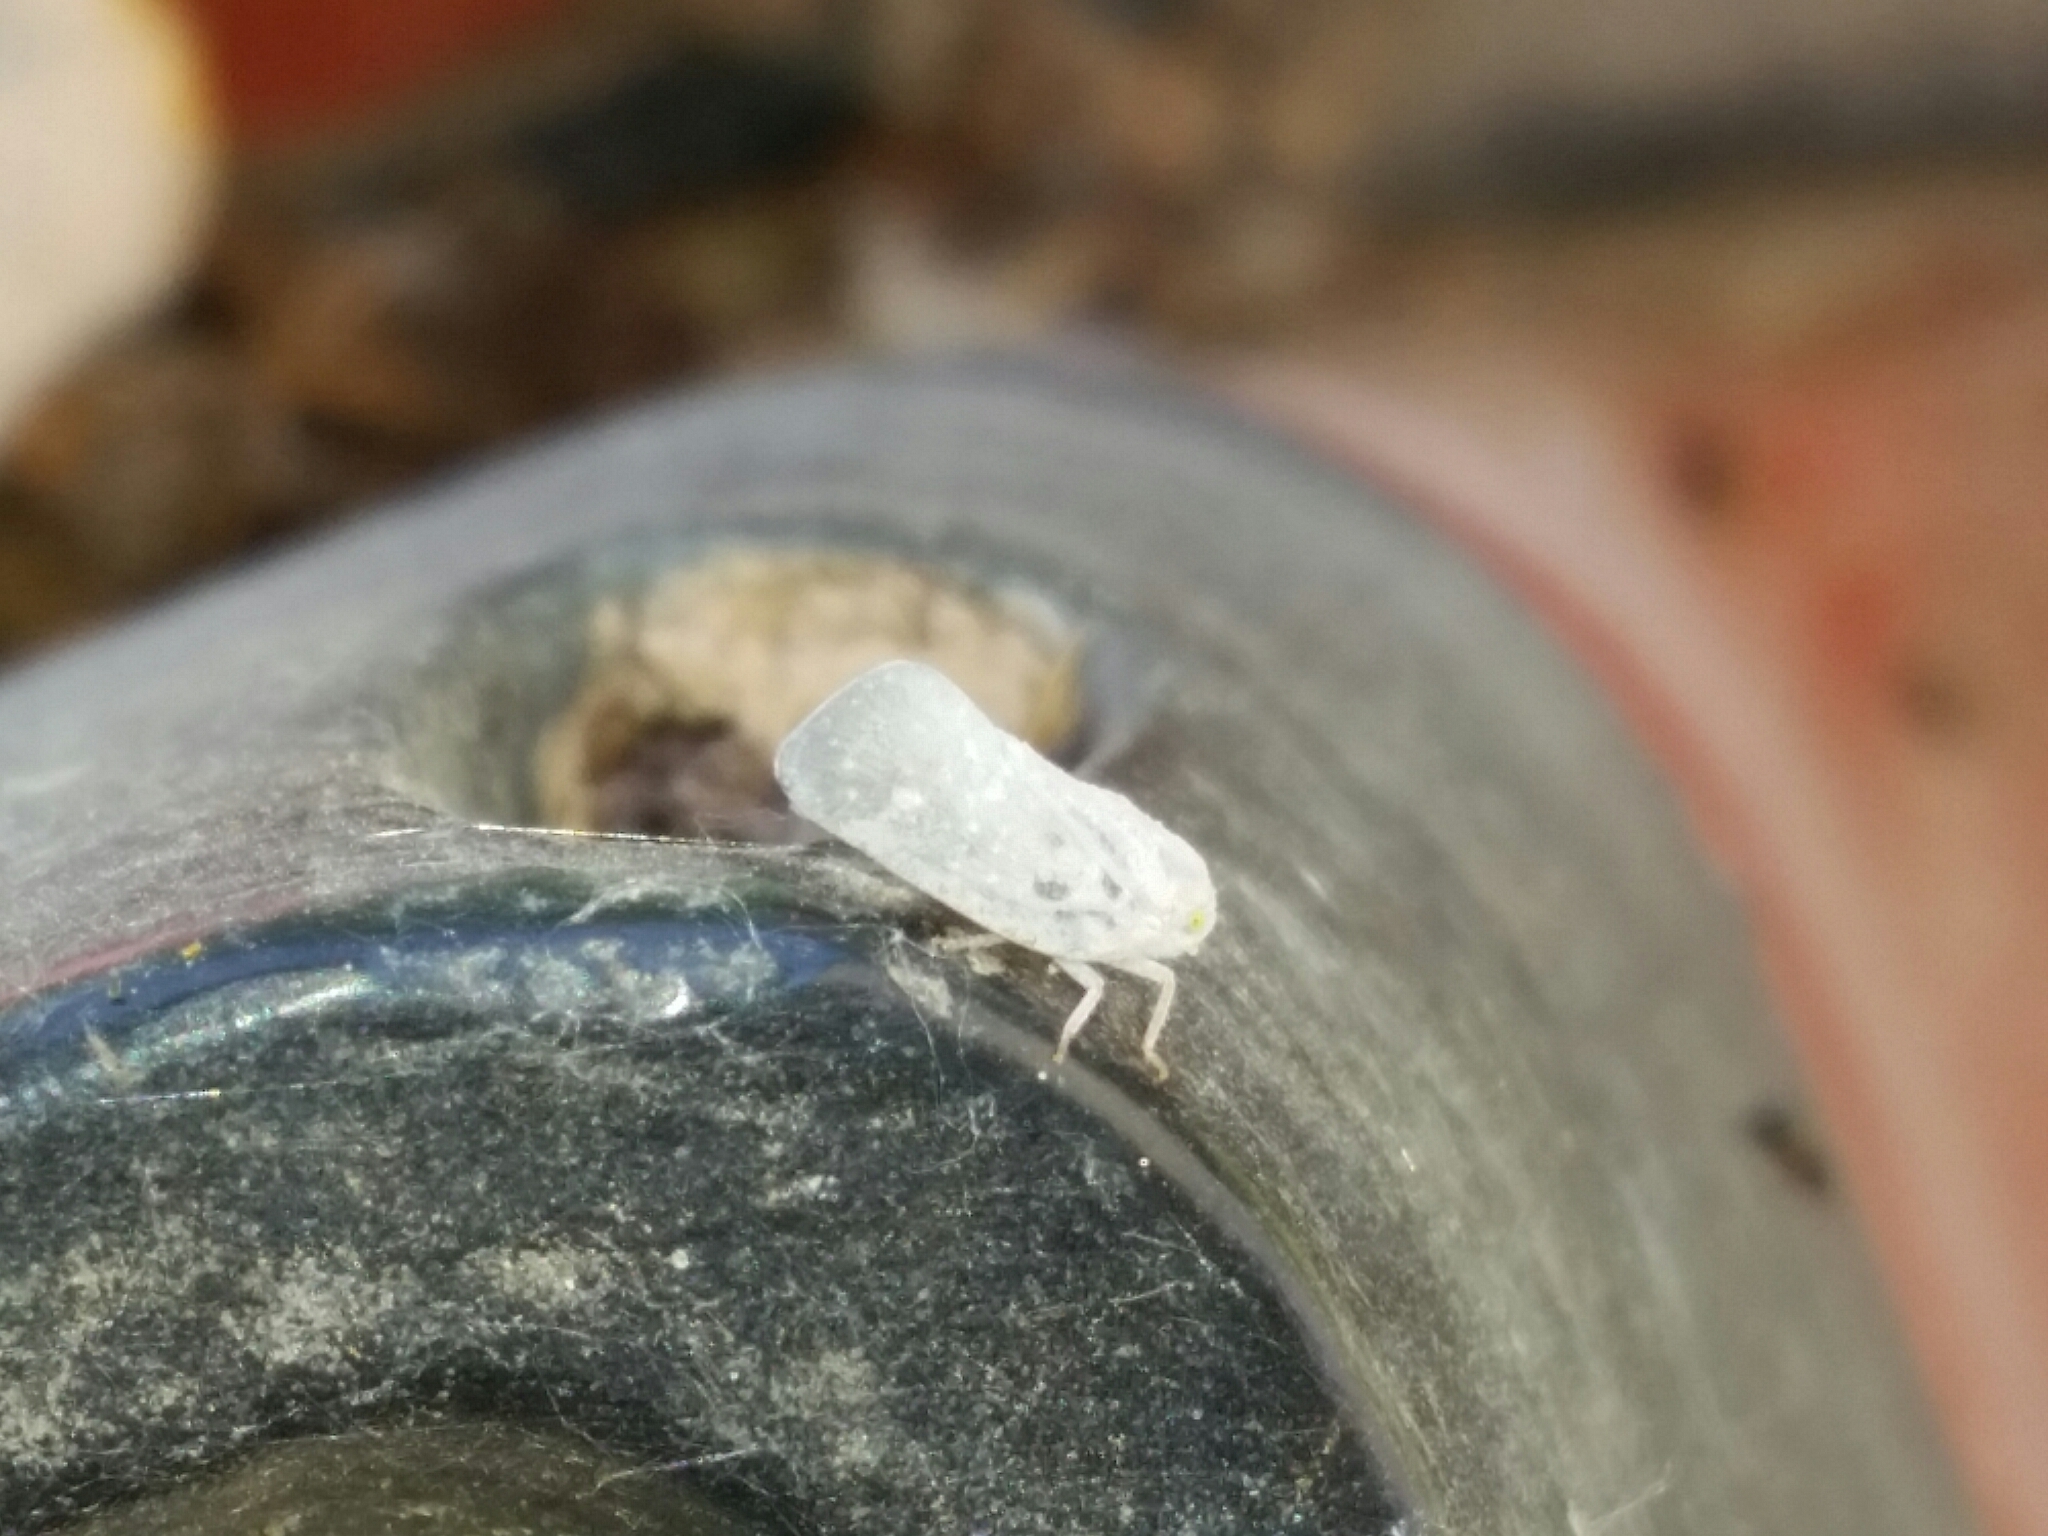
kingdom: Animalia
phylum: Arthropoda
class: Insecta
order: Hemiptera
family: Flatidae
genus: Metcalfa
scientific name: Metcalfa pruinosa
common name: Citrus flatid planthopper
